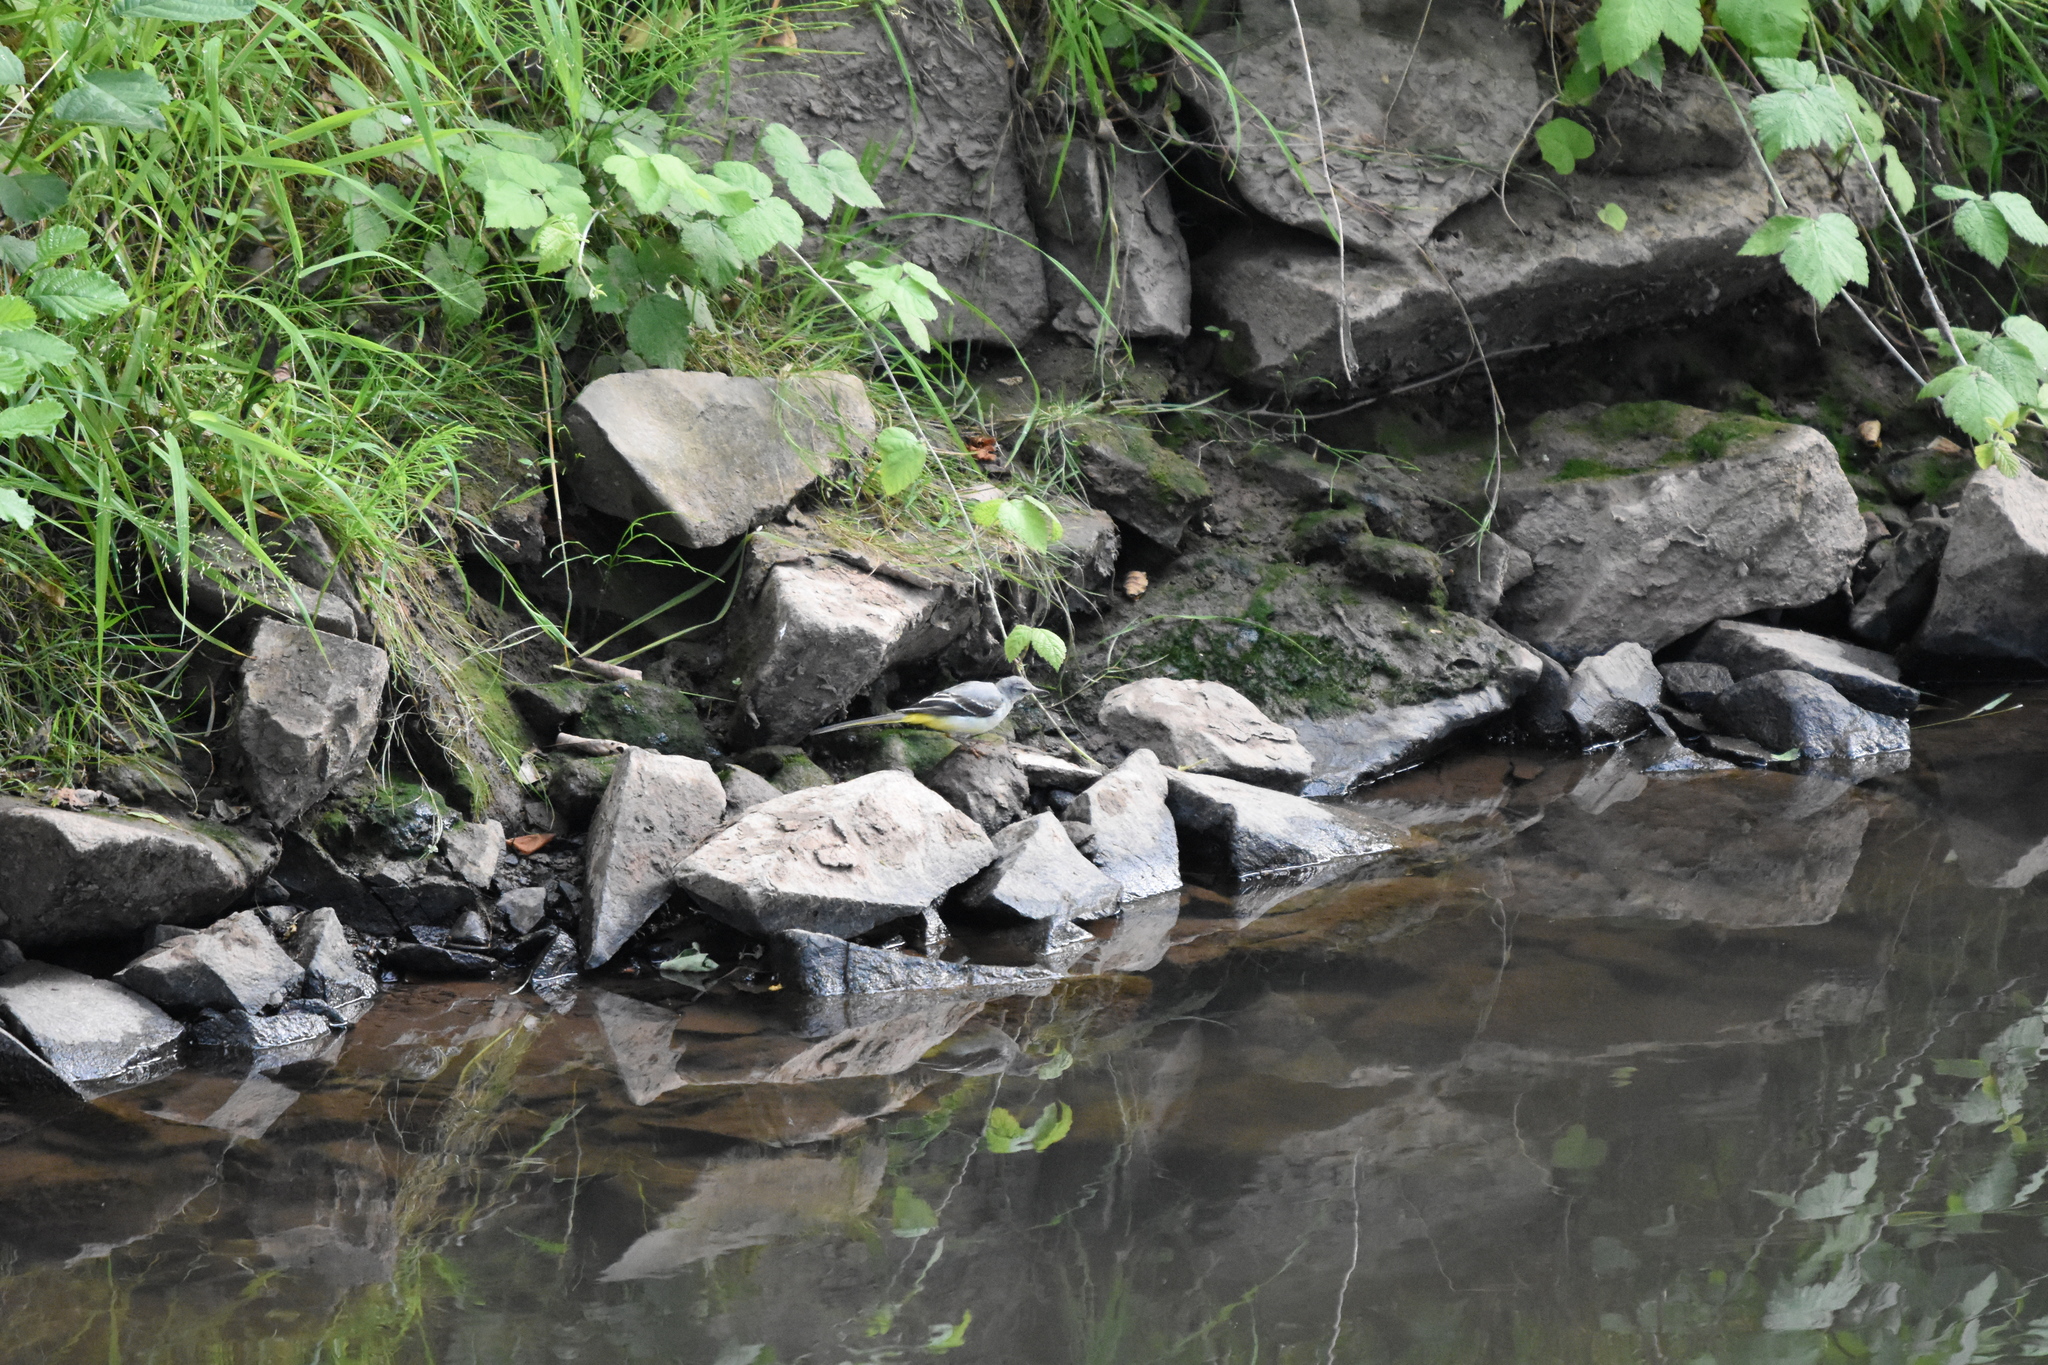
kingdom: Animalia
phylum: Chordata
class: Aves
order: Passeriformes
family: Motacillidae
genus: Motacilla
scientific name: Motacilla cinerea
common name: Grey wagtail
